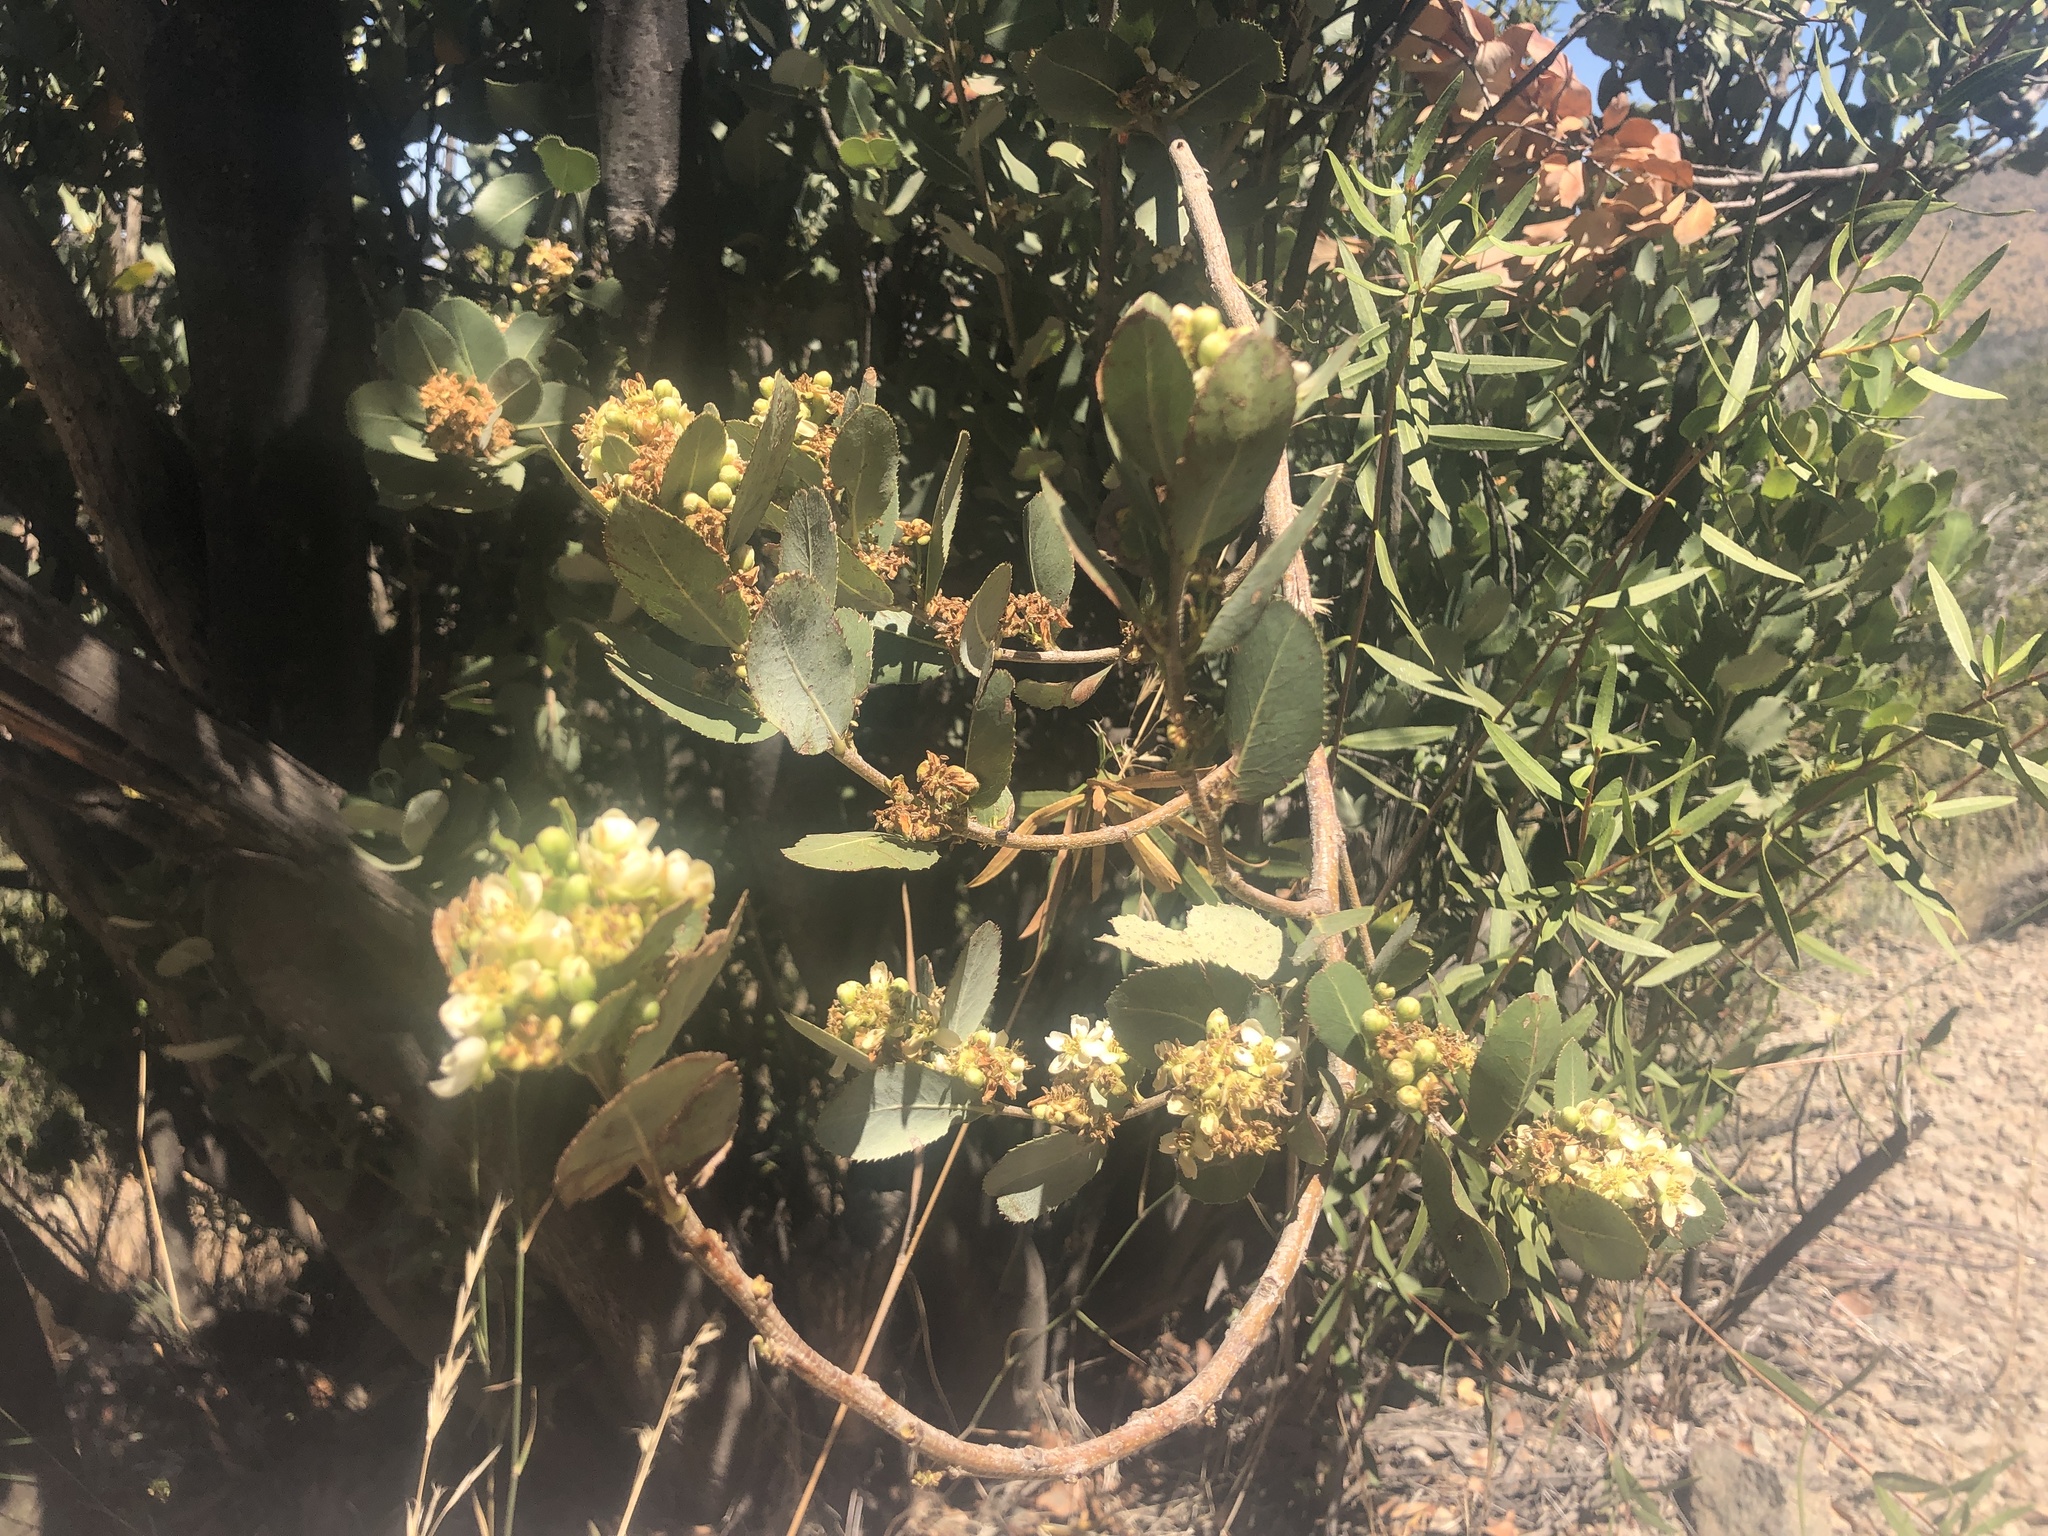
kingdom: Plantae
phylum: Tracheophyta
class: Magnoliopsida
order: Rosales
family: Rosaceae
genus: Kageneckia
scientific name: Kageneckia oblonga
